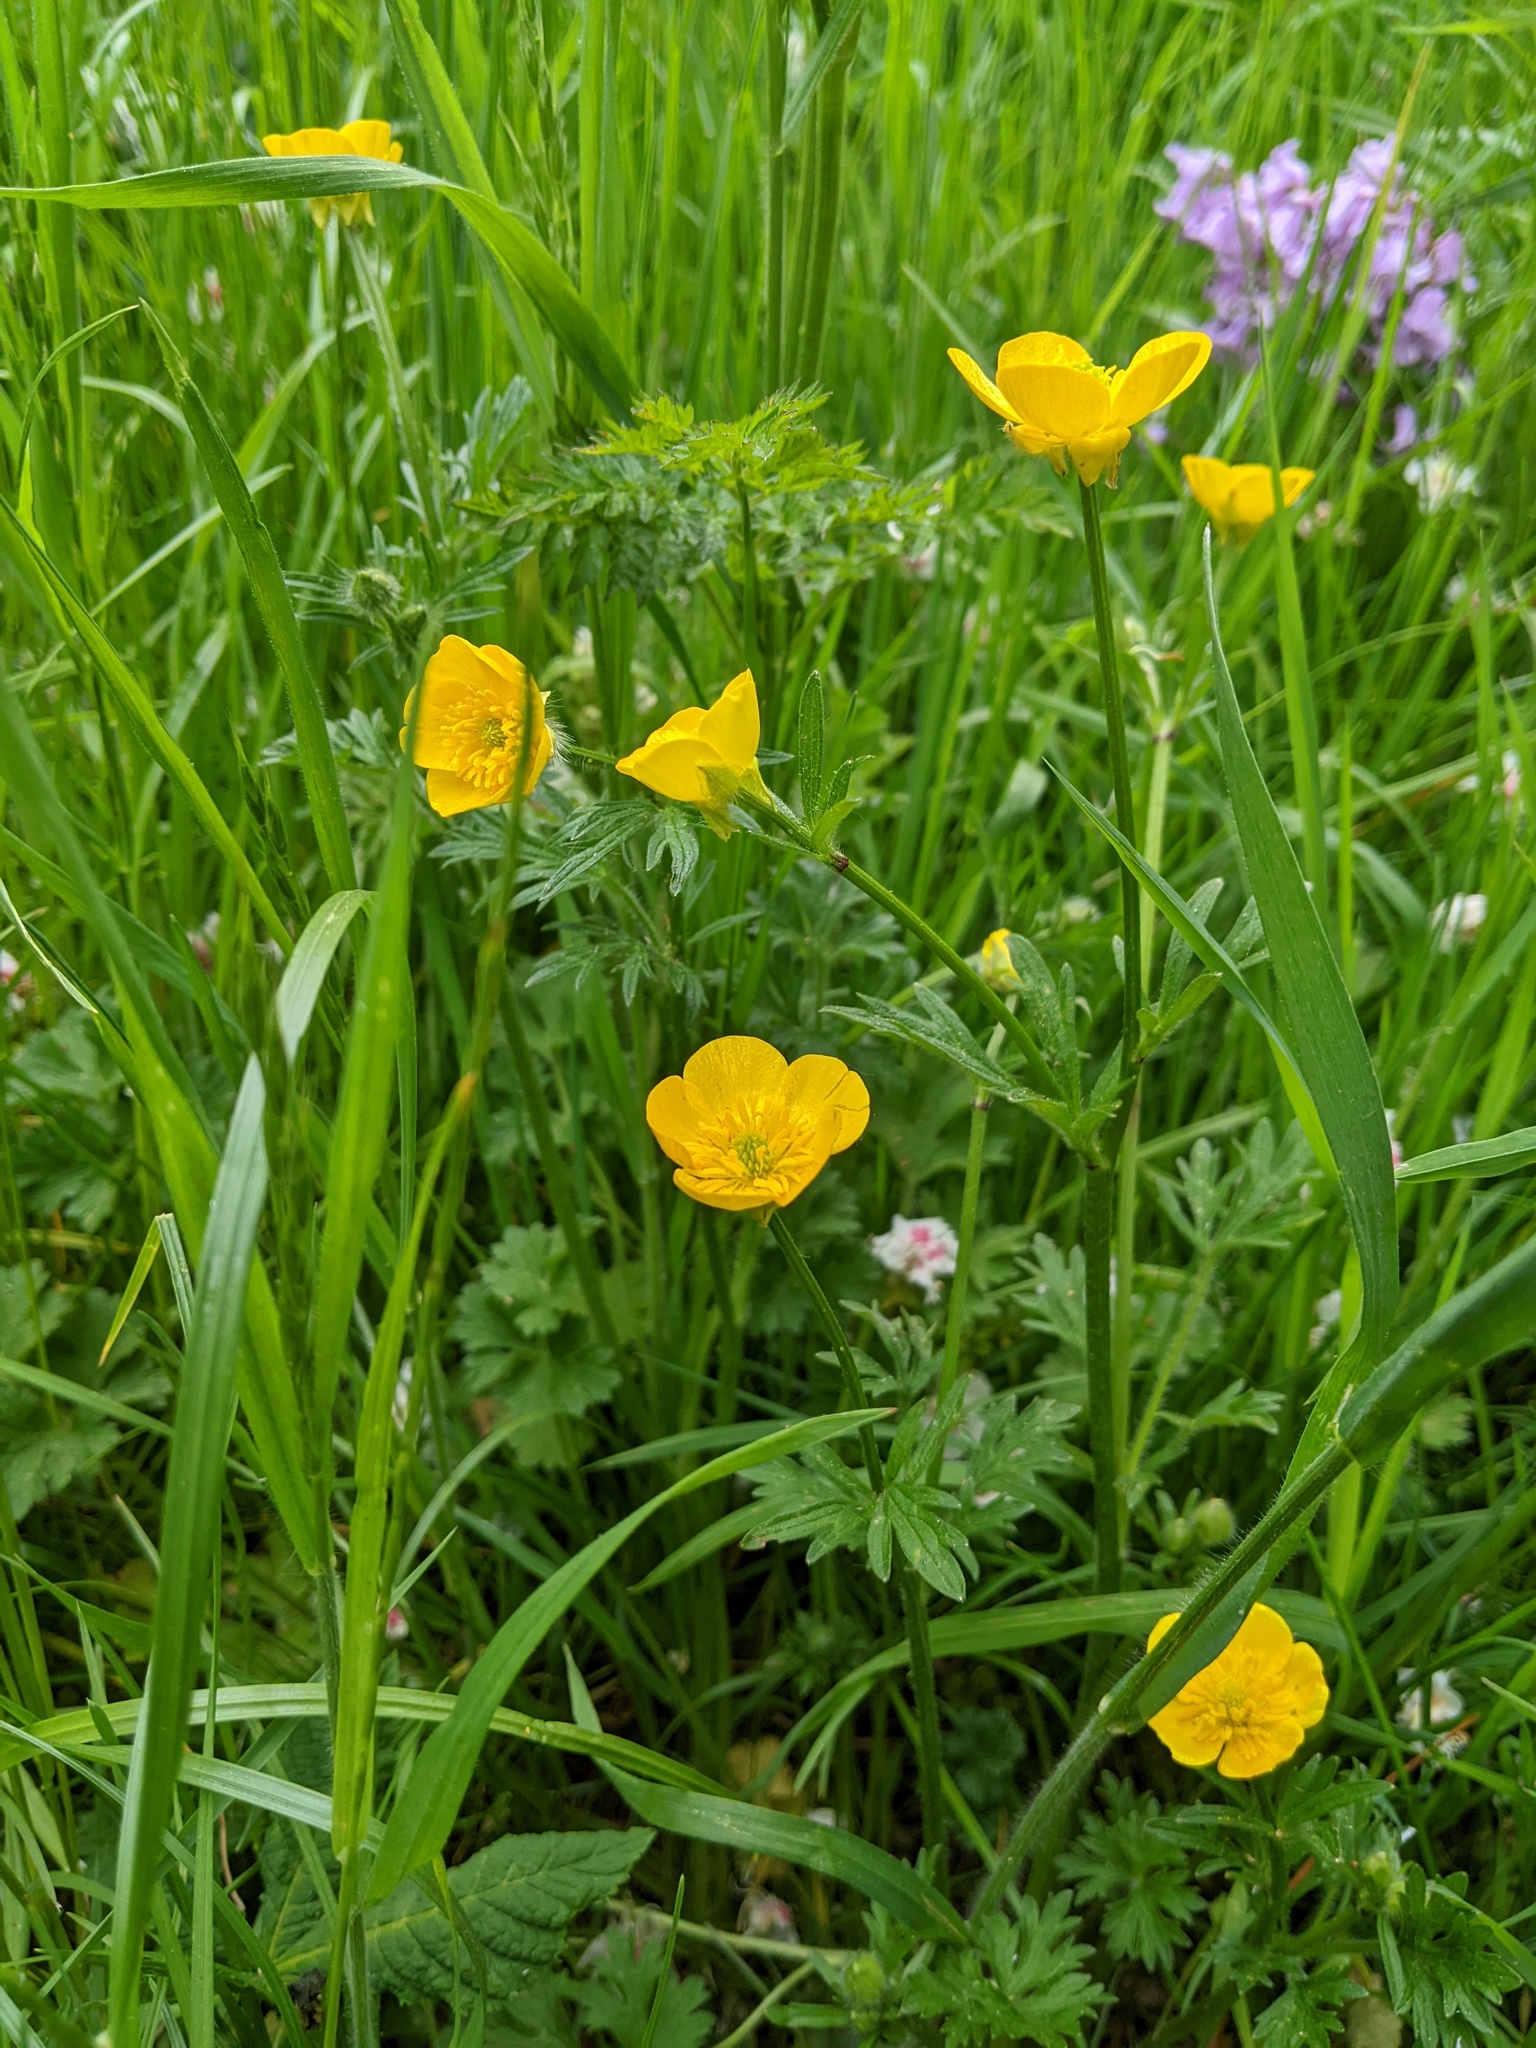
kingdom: Plantae
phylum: Tracheophyta
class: Magnoliopsida
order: Ranunculales
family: Ranunculaceae
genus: Ranunculus
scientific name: Ranunculus bulbosus
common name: Bulbous buttercup
